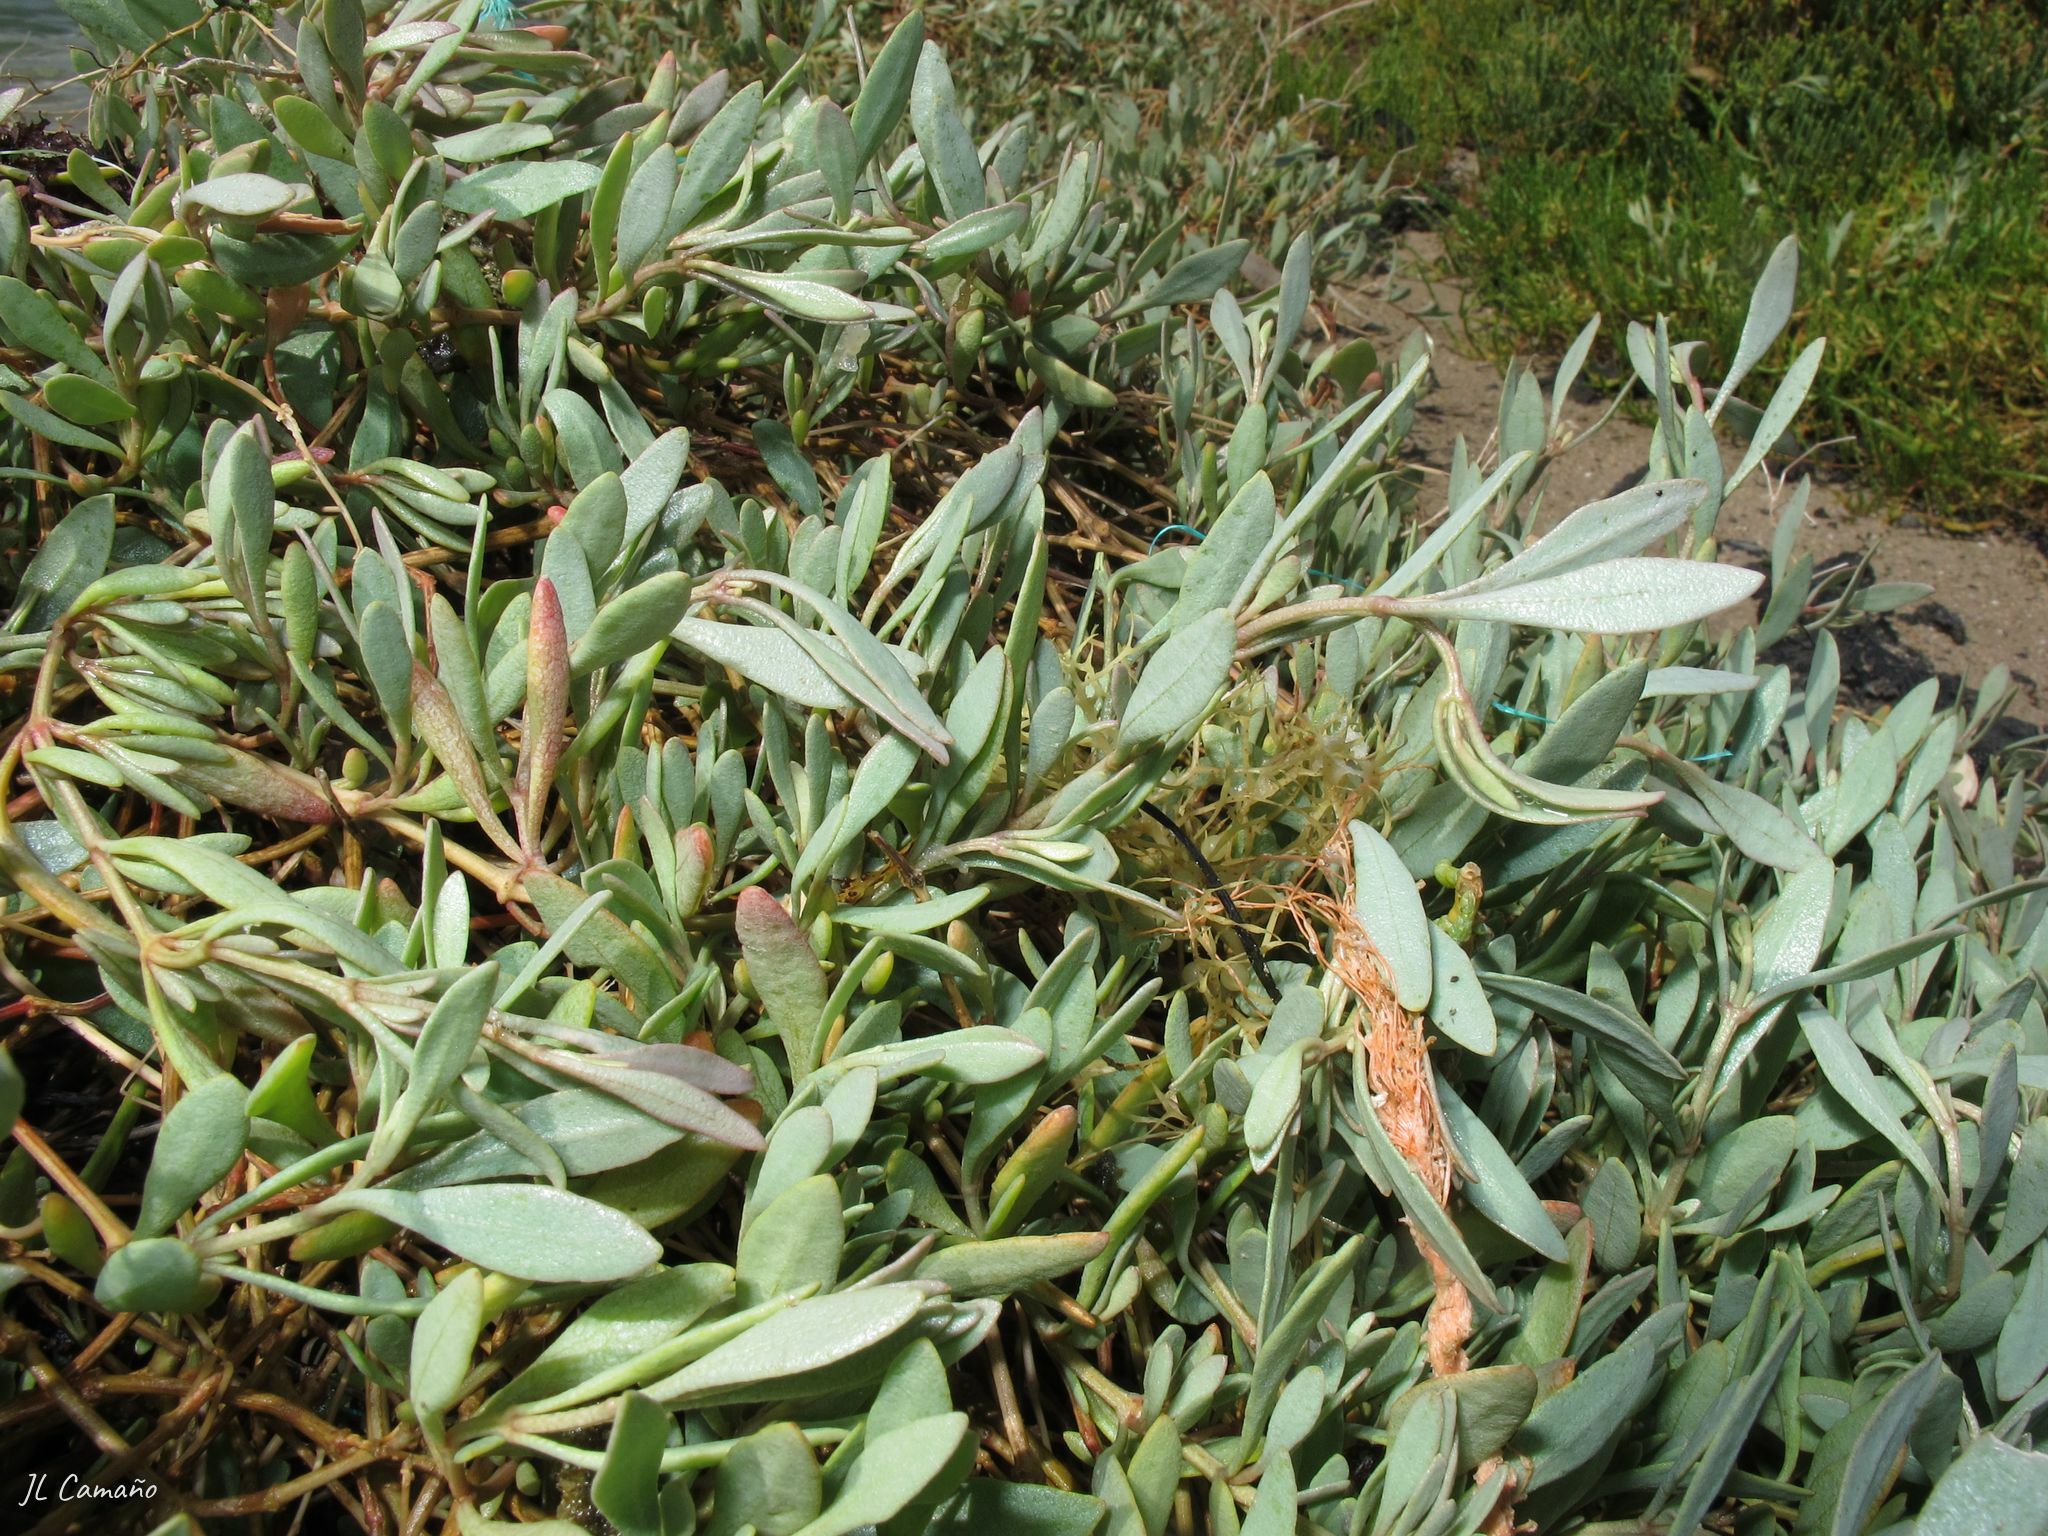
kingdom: Plantae
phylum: Tracheophyta
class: Magnoliopsida
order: Caryophyllales
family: Amaranthaceae
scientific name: Amaranthaceae
